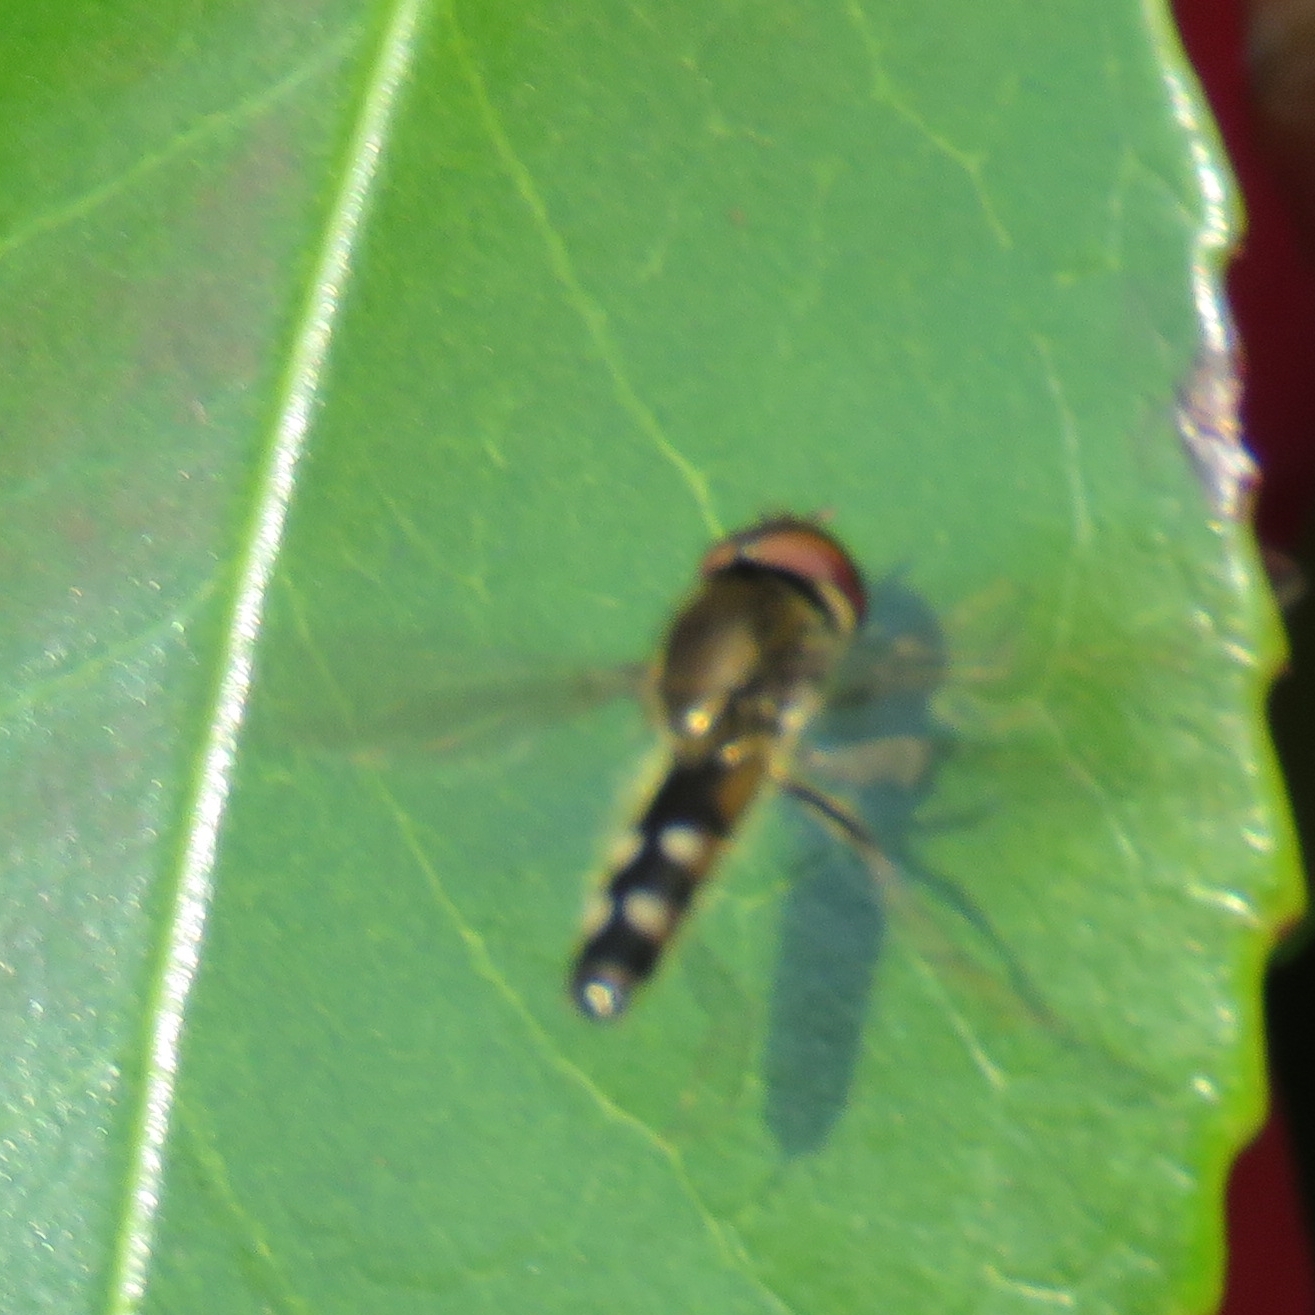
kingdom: Animalia
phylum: Arthropoda
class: Insecta
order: Diptera
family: Syrphidae
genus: Platycheirus
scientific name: Platycheirus albimanus
